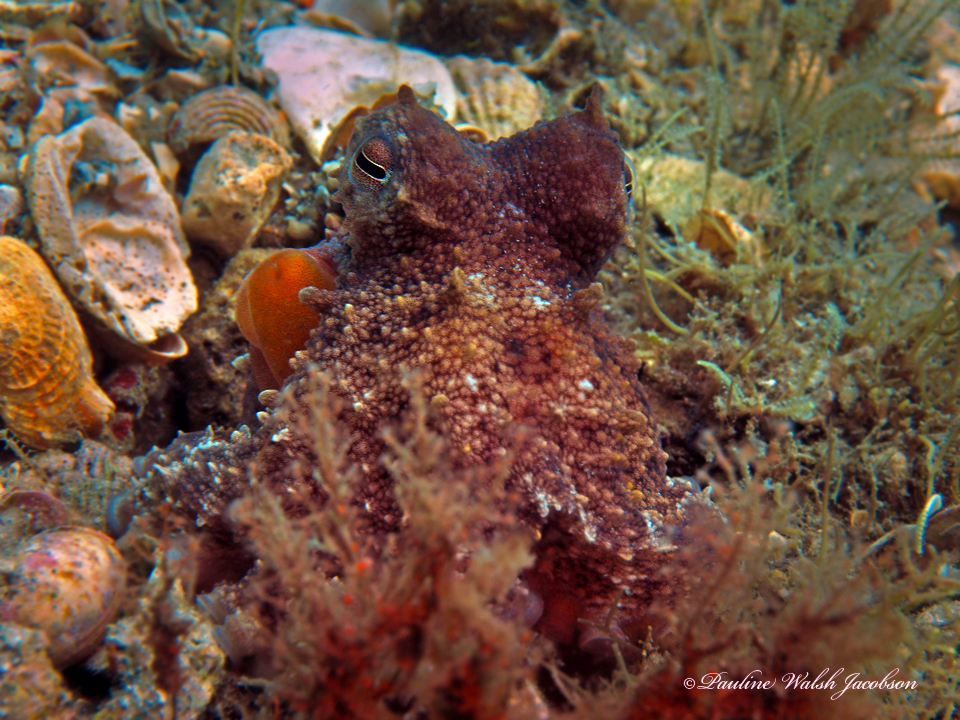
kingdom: Animalia
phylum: Mollusca
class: Cephalopoda
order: Octopoda
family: Octopodidae
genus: Octopus
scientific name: Octopus americanus
